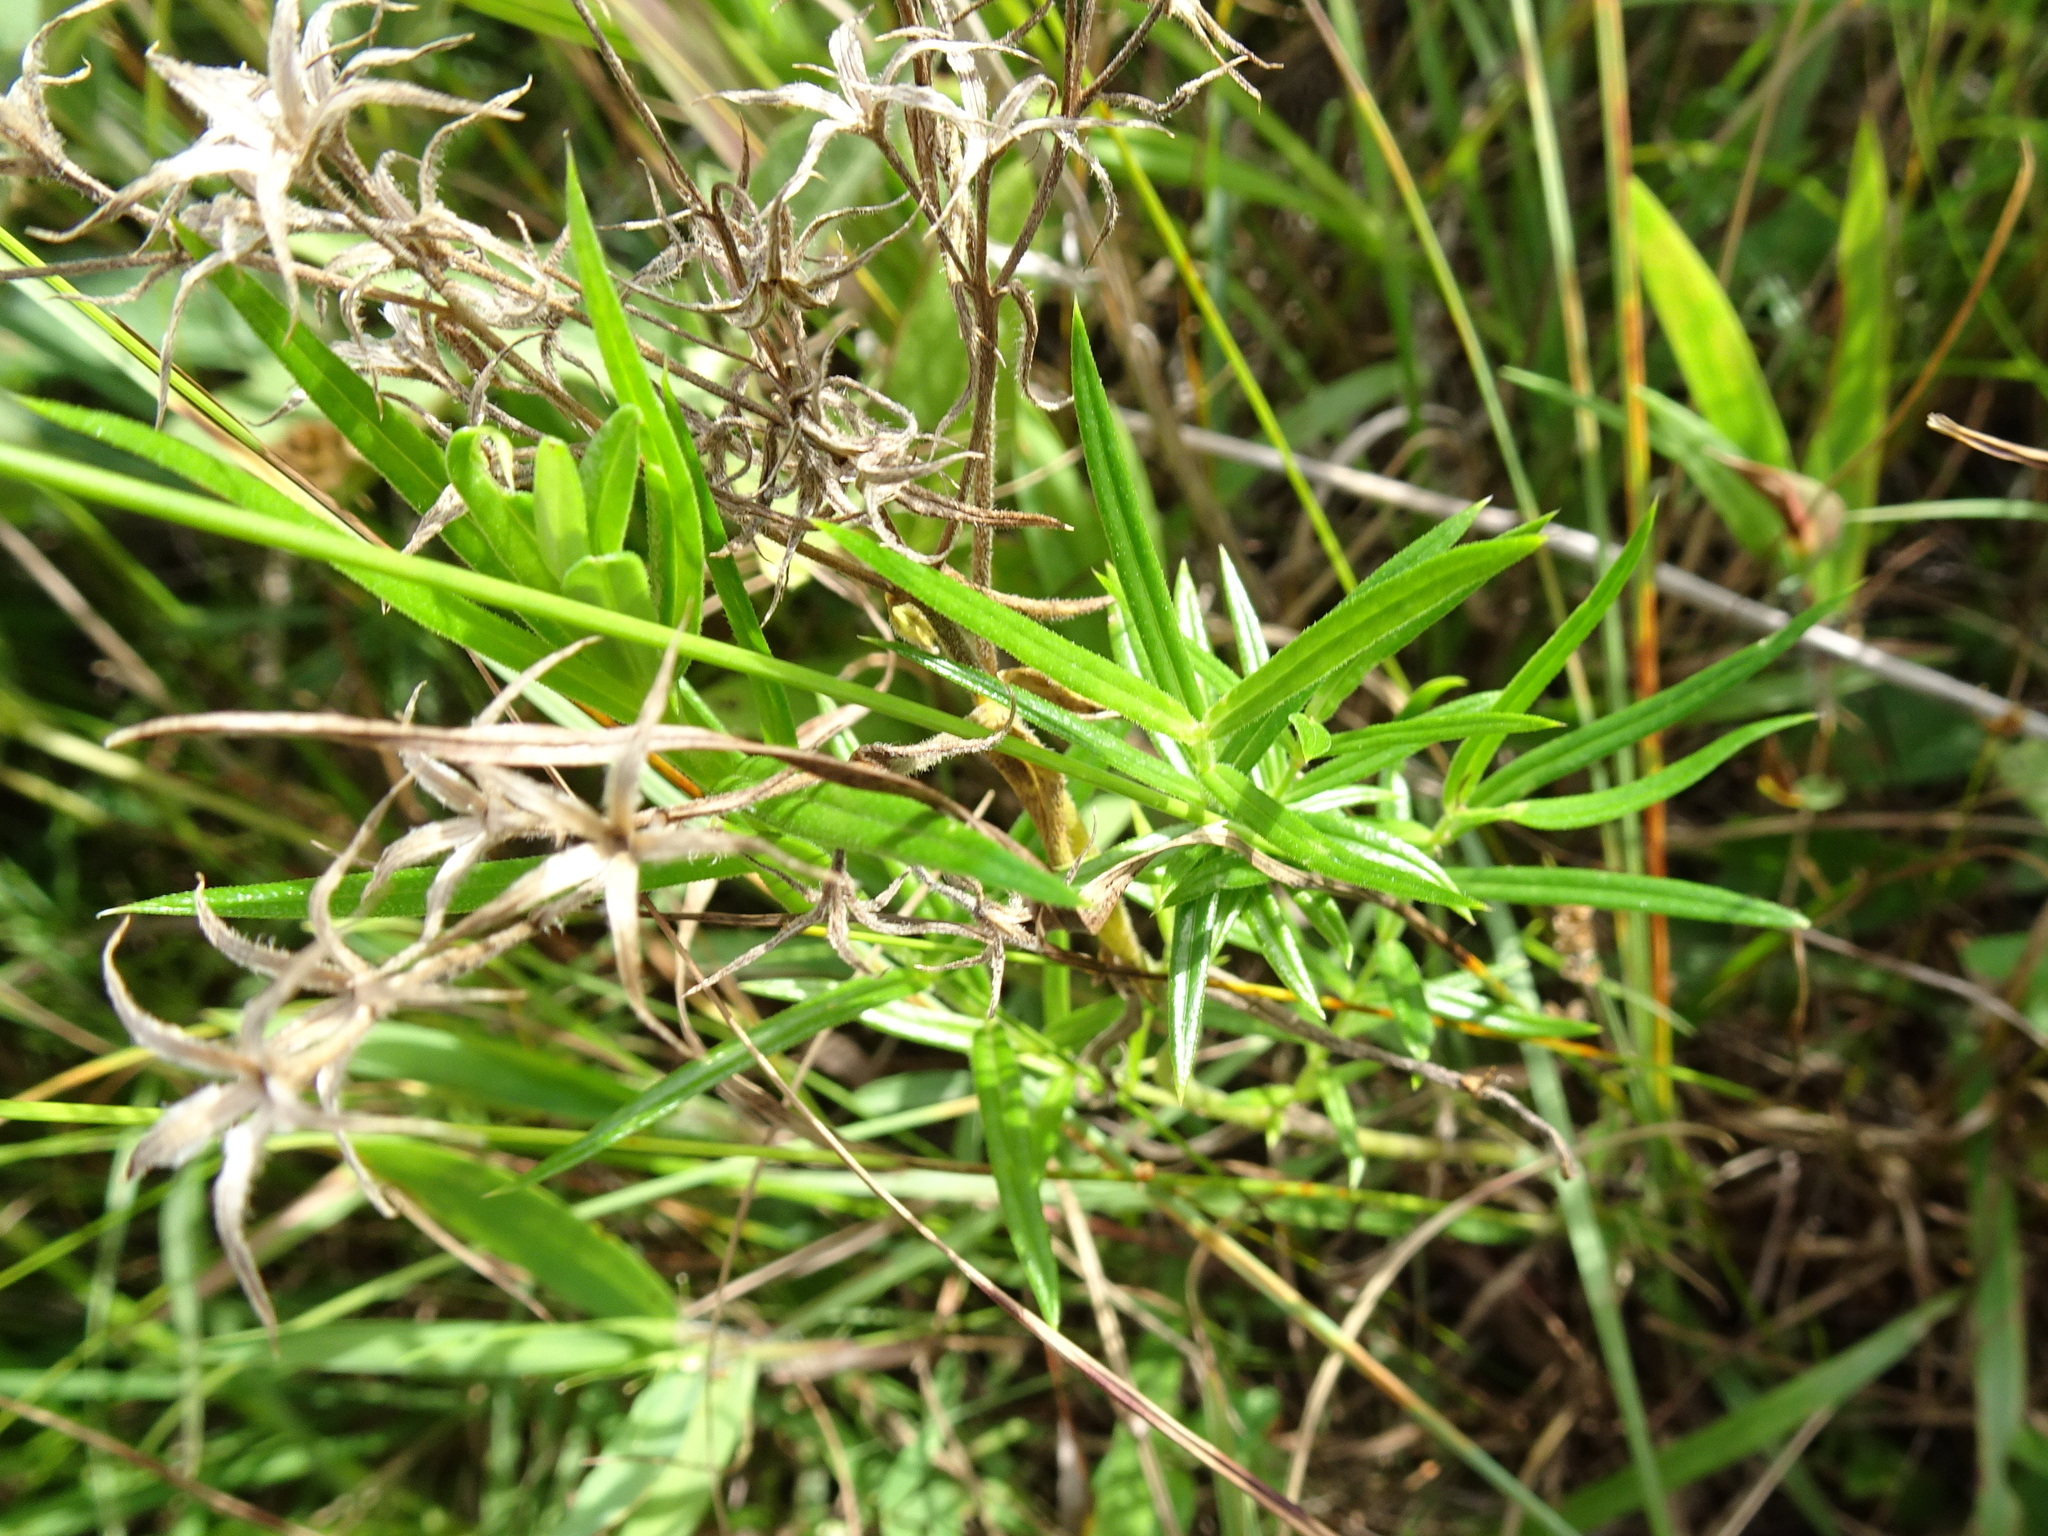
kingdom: Plantae
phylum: Tracheophyta
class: Magnoliopsida
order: Ericales
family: Polemoniaceae
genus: Phlox
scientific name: Phlox pilosa
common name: Prairie phlox
